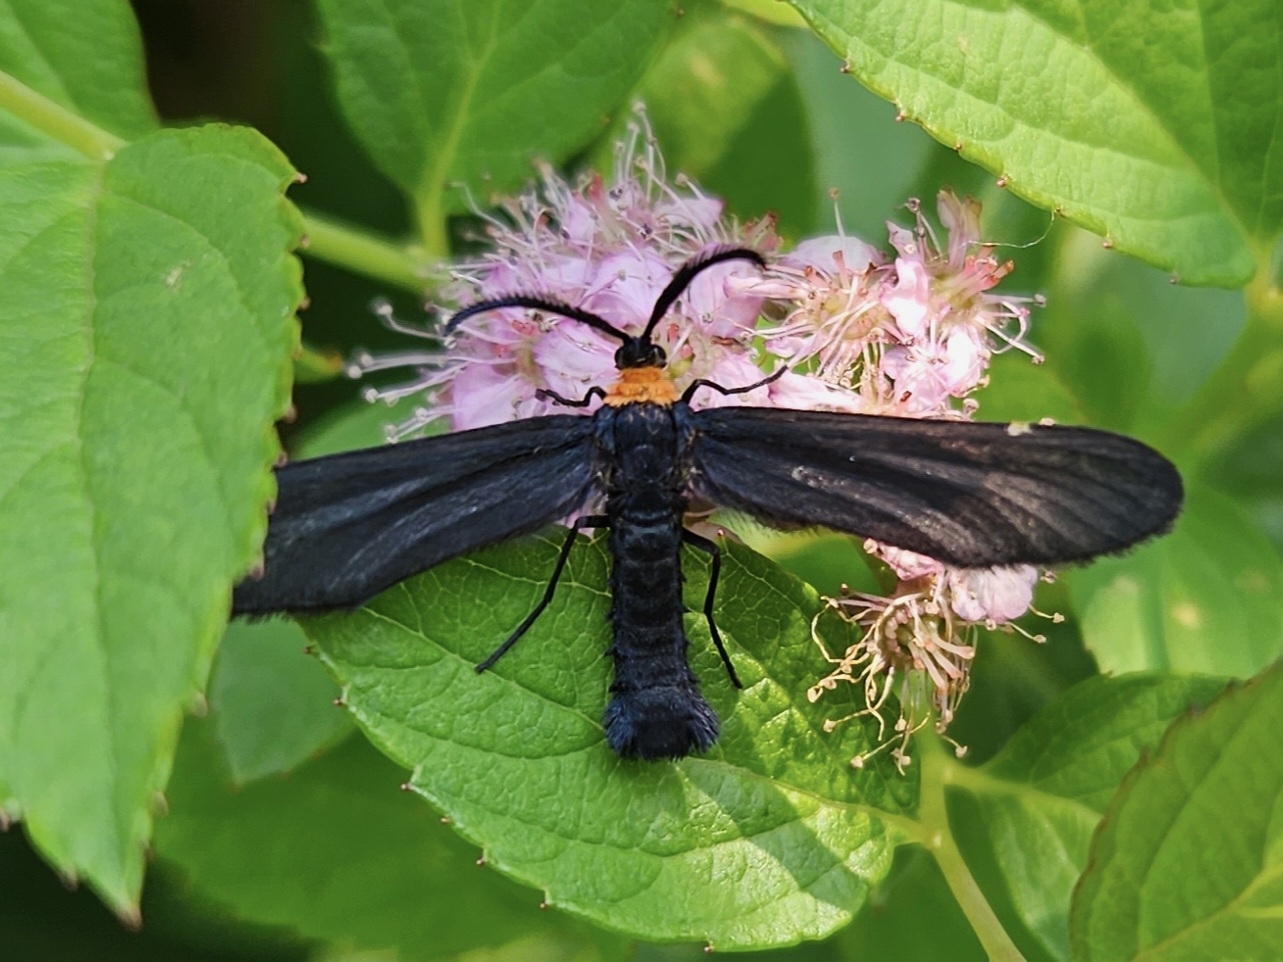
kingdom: Animalia
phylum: Arthropoda
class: Insecta
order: Lepidoptera
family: Zygaenidae
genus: Harrisina
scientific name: Harrisina americana
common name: Grapeleaf skeletonizer moth
